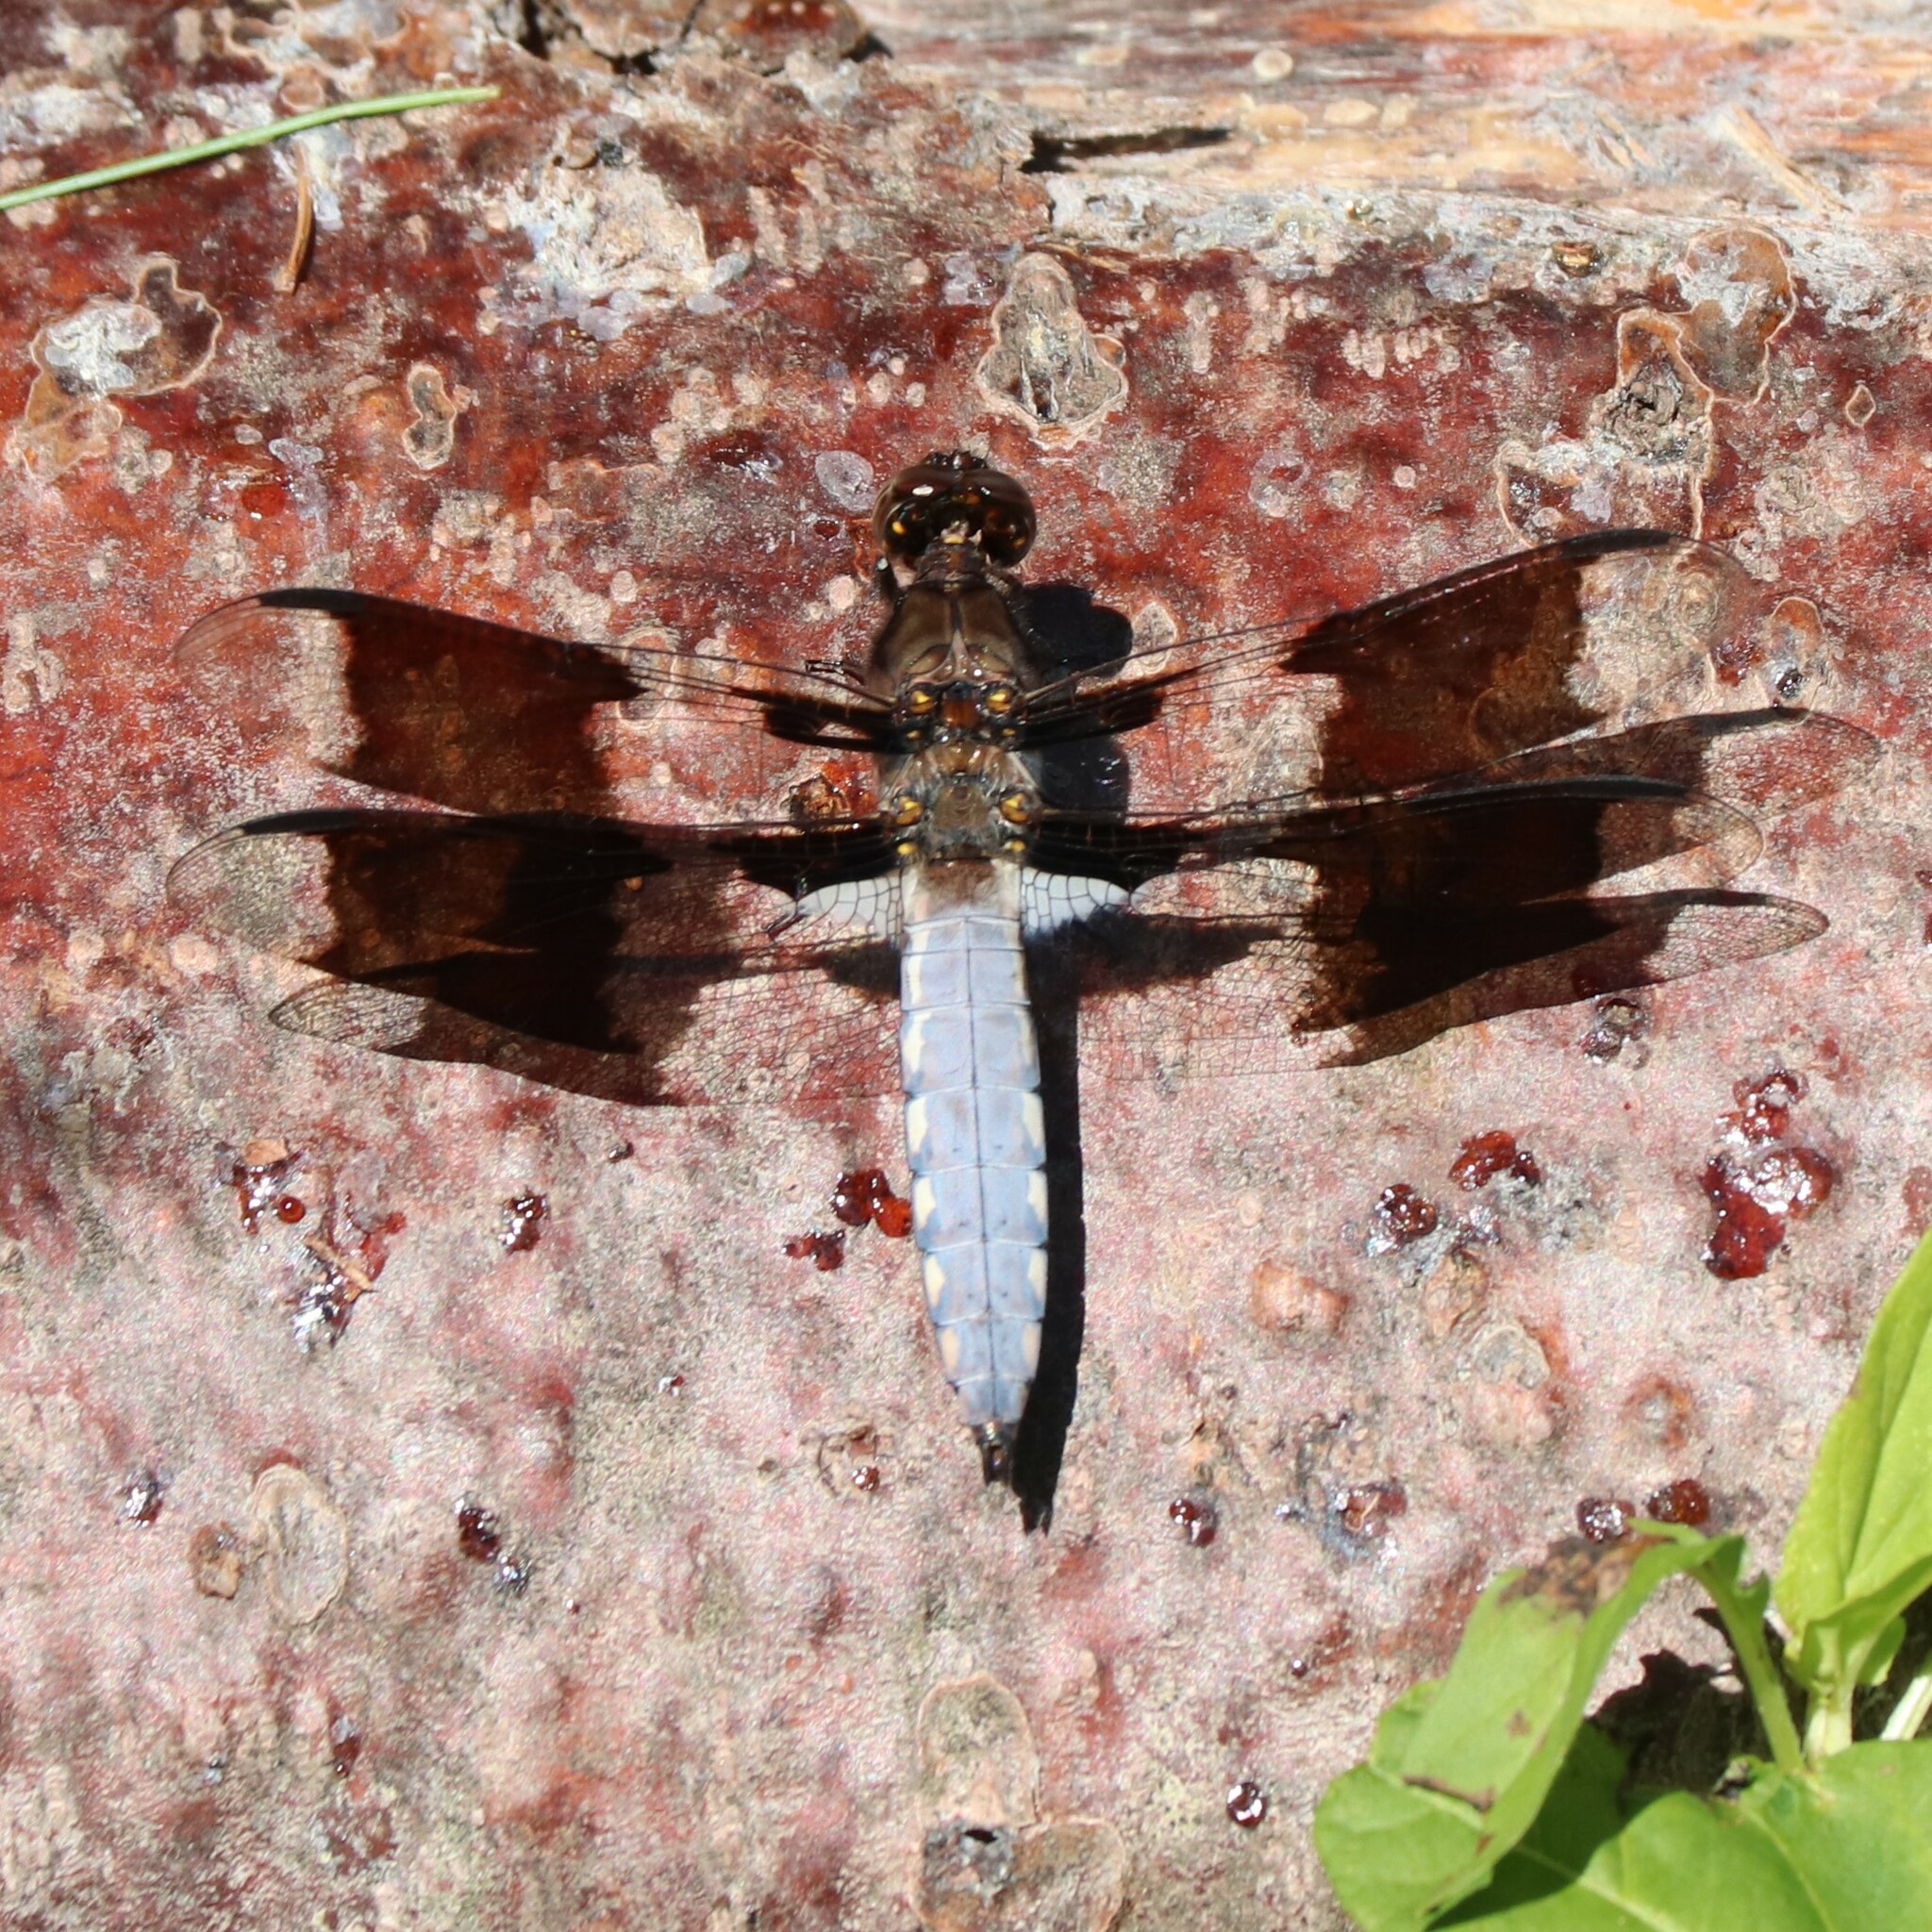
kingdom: Animalia
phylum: Arthropoda
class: Insecta
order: Odonata
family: Libellulidae
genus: Plathemis
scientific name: Plathemis lydia
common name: Common whitetail
